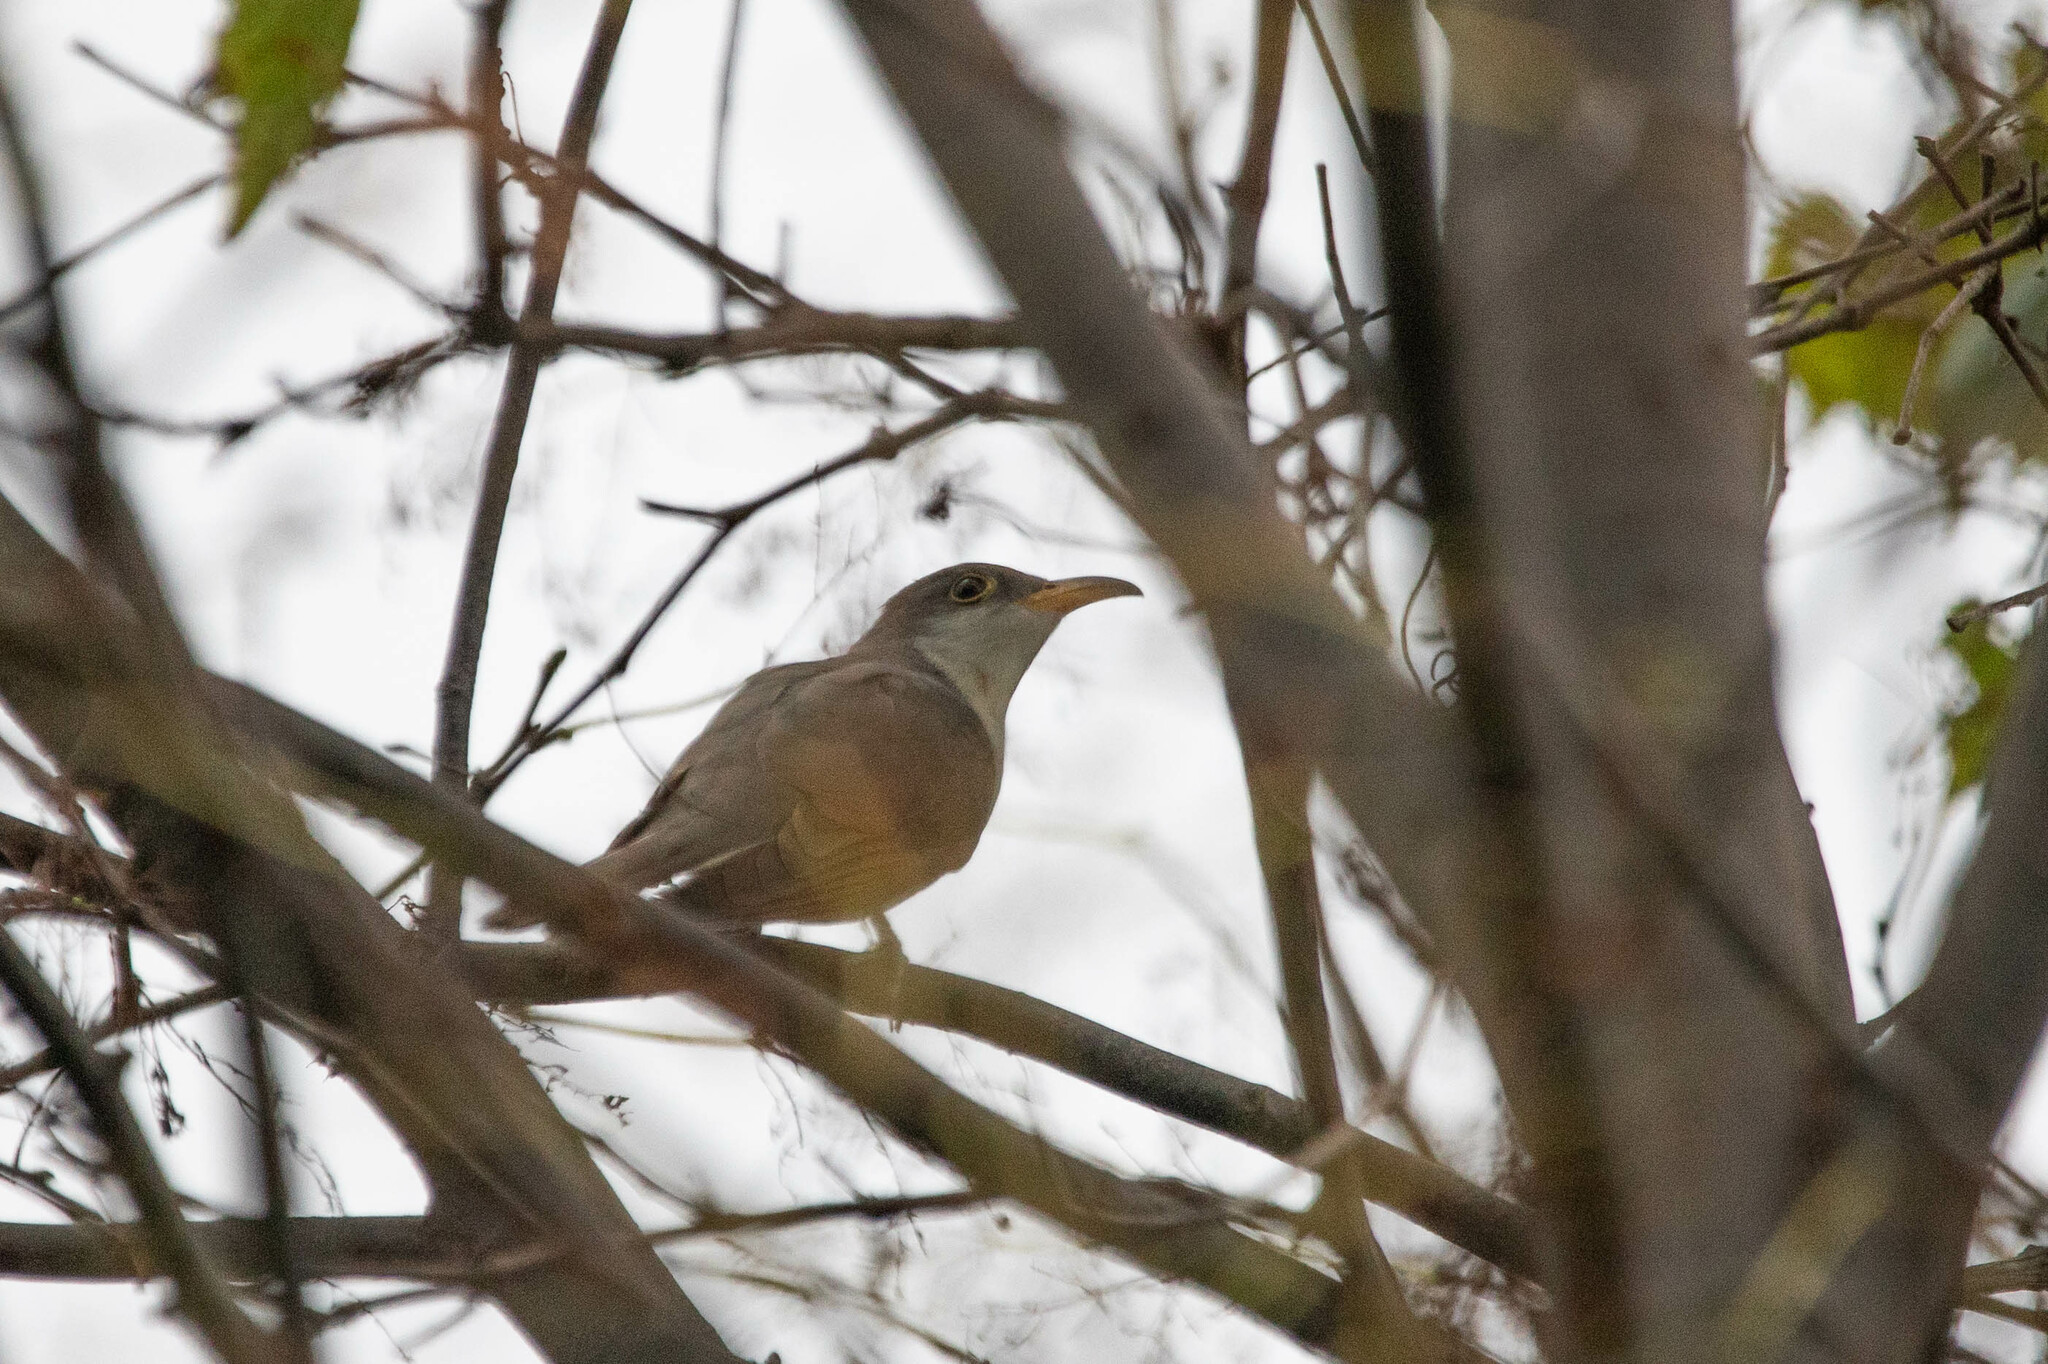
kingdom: Animalia
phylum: Chordata
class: Aves
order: Cuculiformes
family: Cuculidae
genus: Coccyzus
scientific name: Coccyzus americanus
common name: Yellow-billed cuckoo
